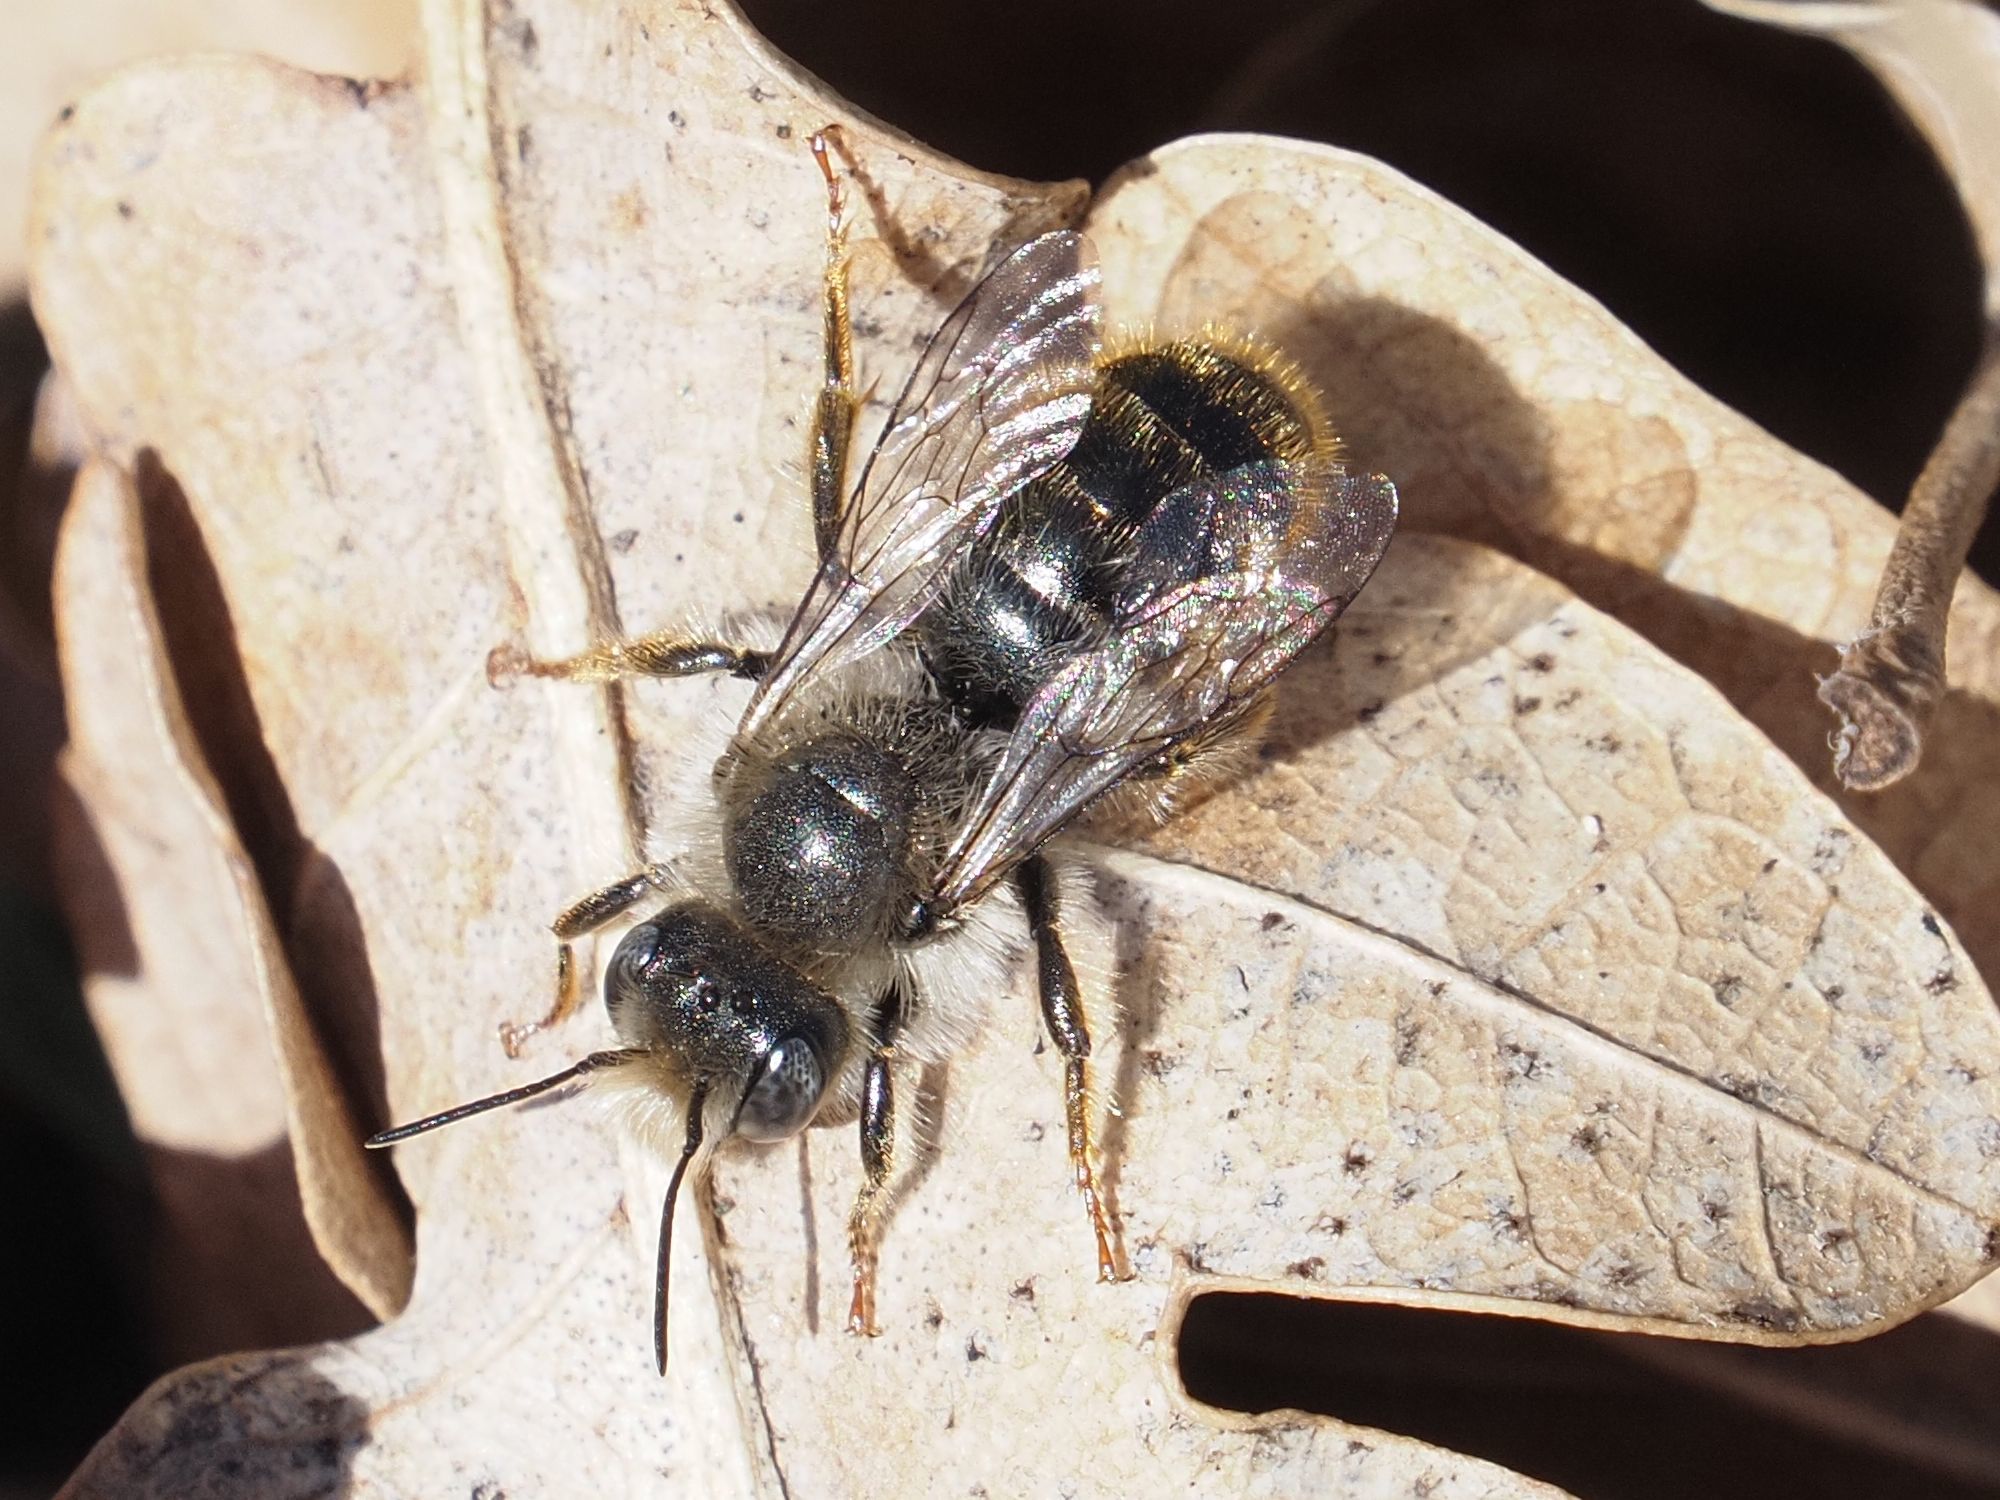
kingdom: Animalia
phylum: Arthropoda
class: Insecta
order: Hymenoptera
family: Megachilidae
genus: Osmia
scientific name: Osmia bicolor
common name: Red-tailed mason bee
